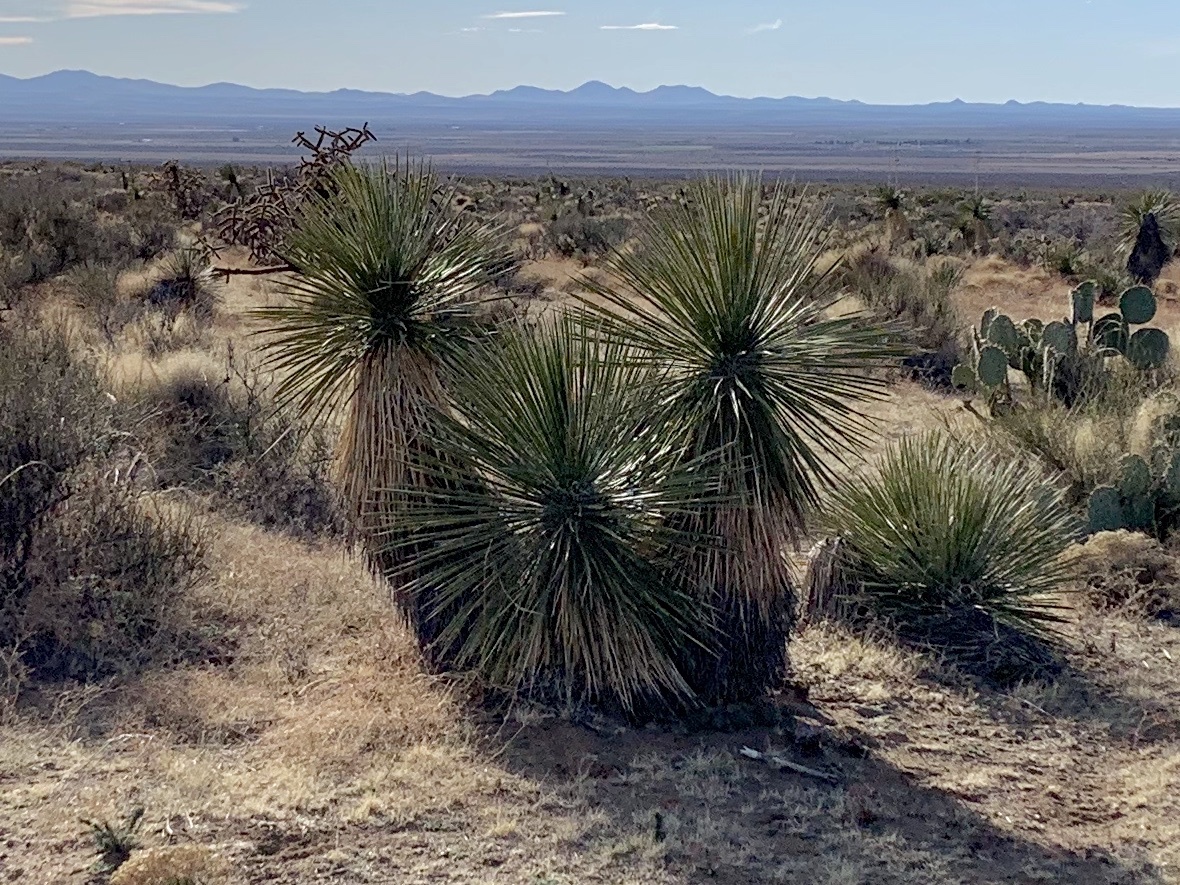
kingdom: Plantae
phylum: Tracheophyta
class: Liliopsida
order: Asparagales
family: Asparagaceae
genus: Yucca
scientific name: Yucca elata
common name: Palmella
